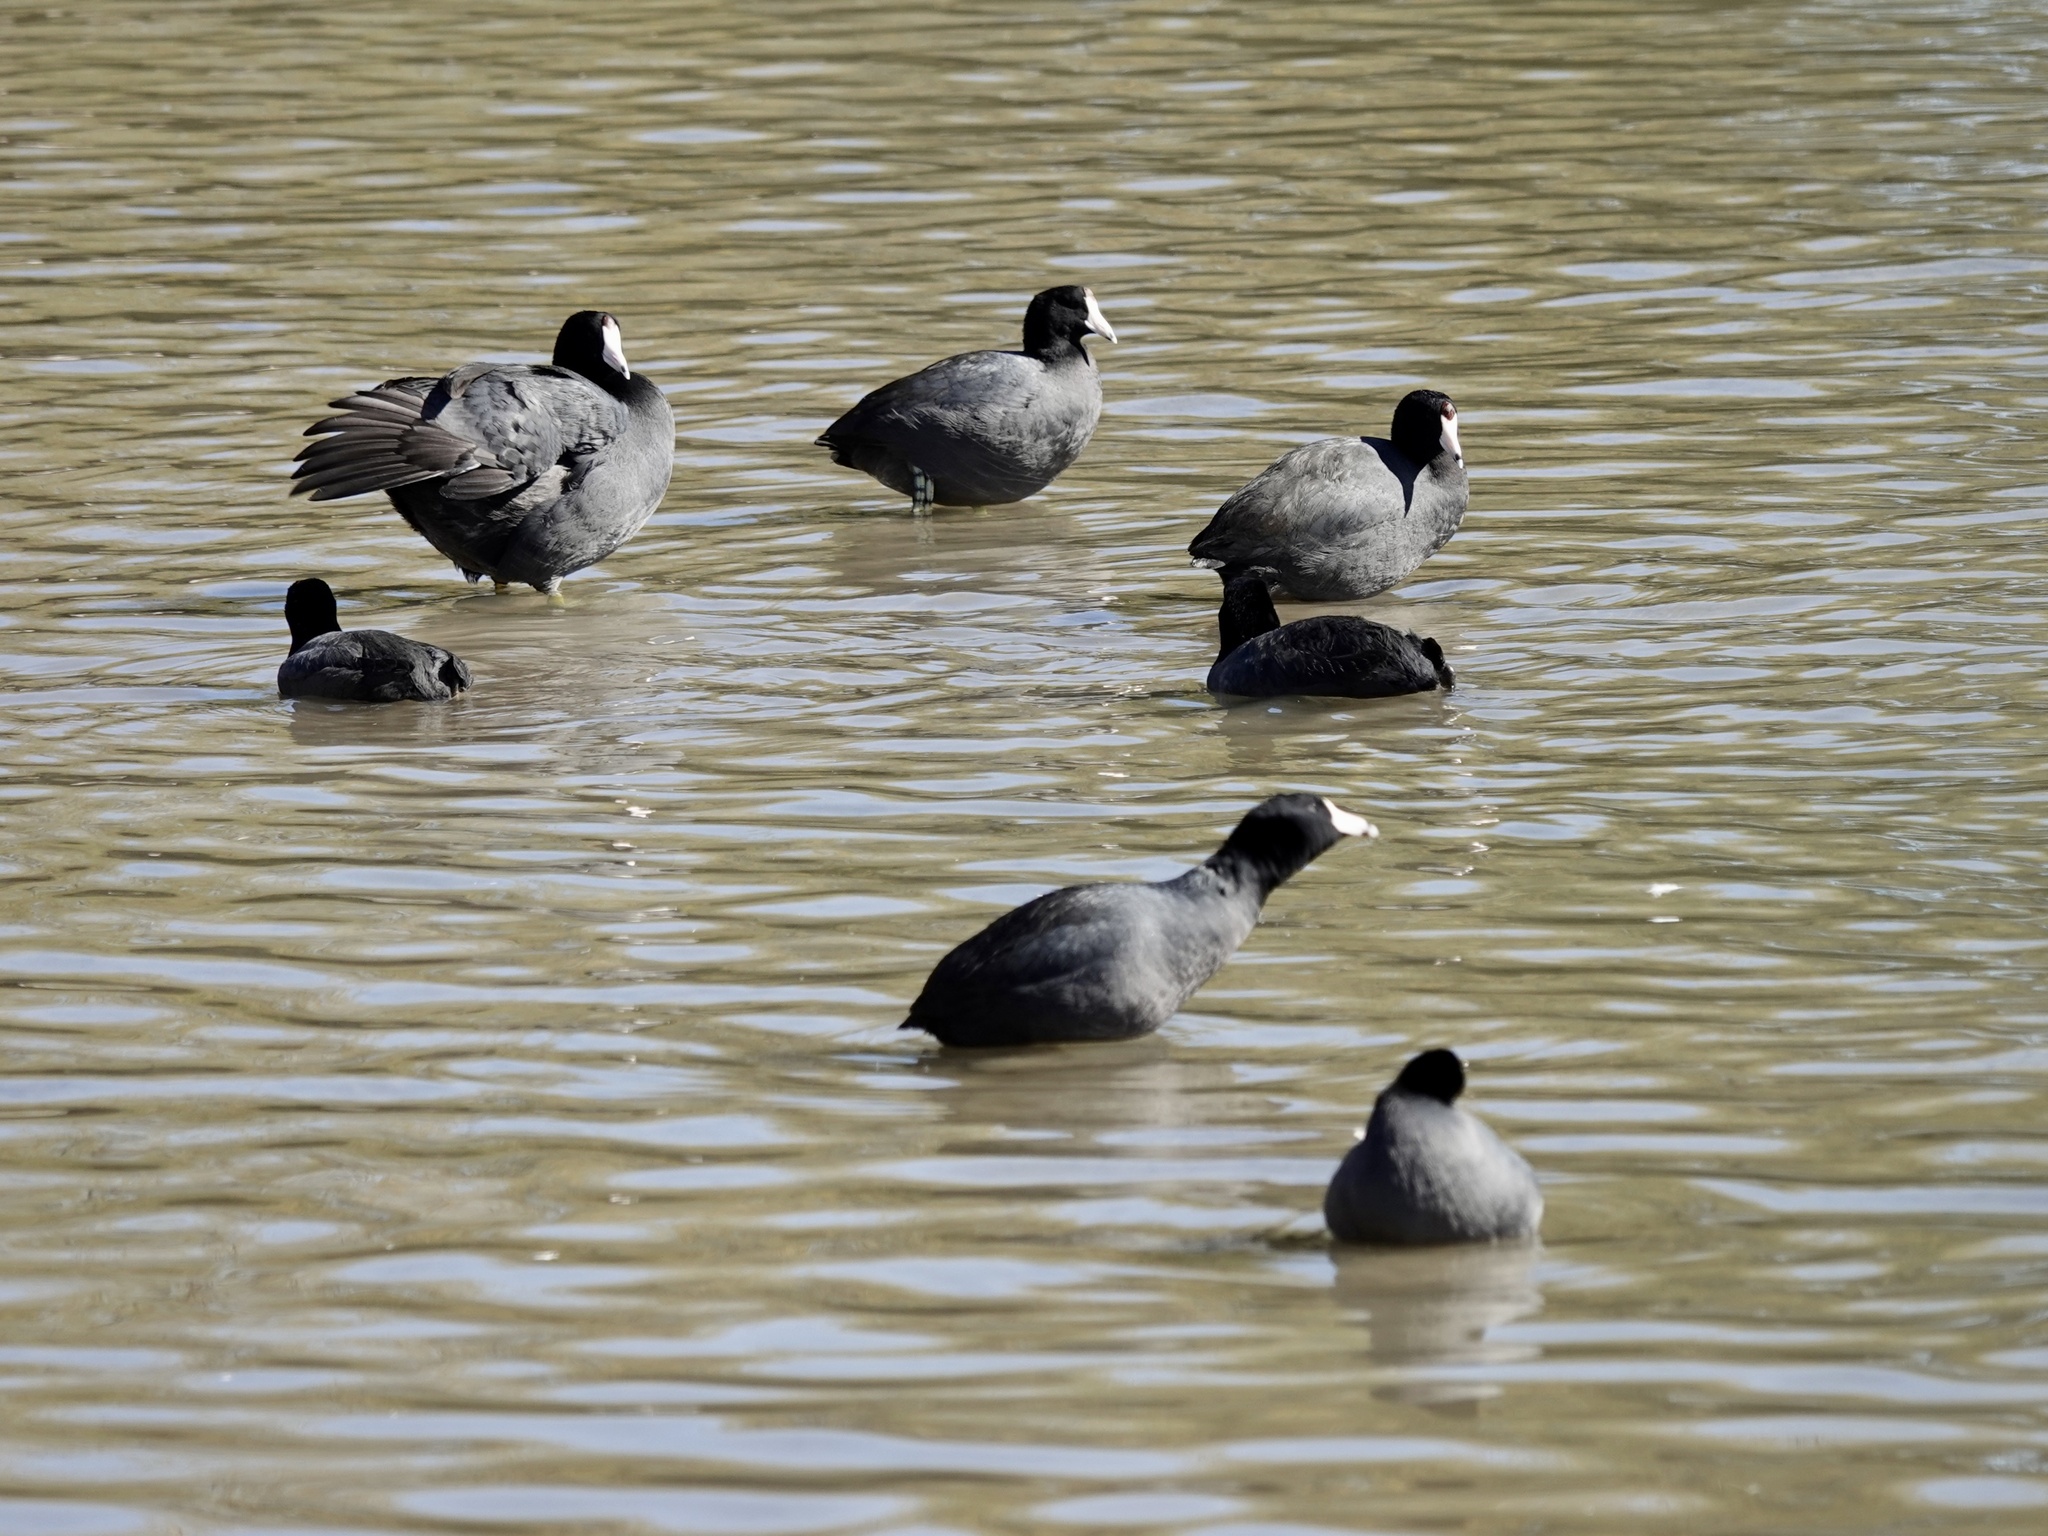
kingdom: Animalia
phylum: Chordata
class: Aves
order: Gruiformes
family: Rallidae
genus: Fulica
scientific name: Fulica americana
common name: American coot
